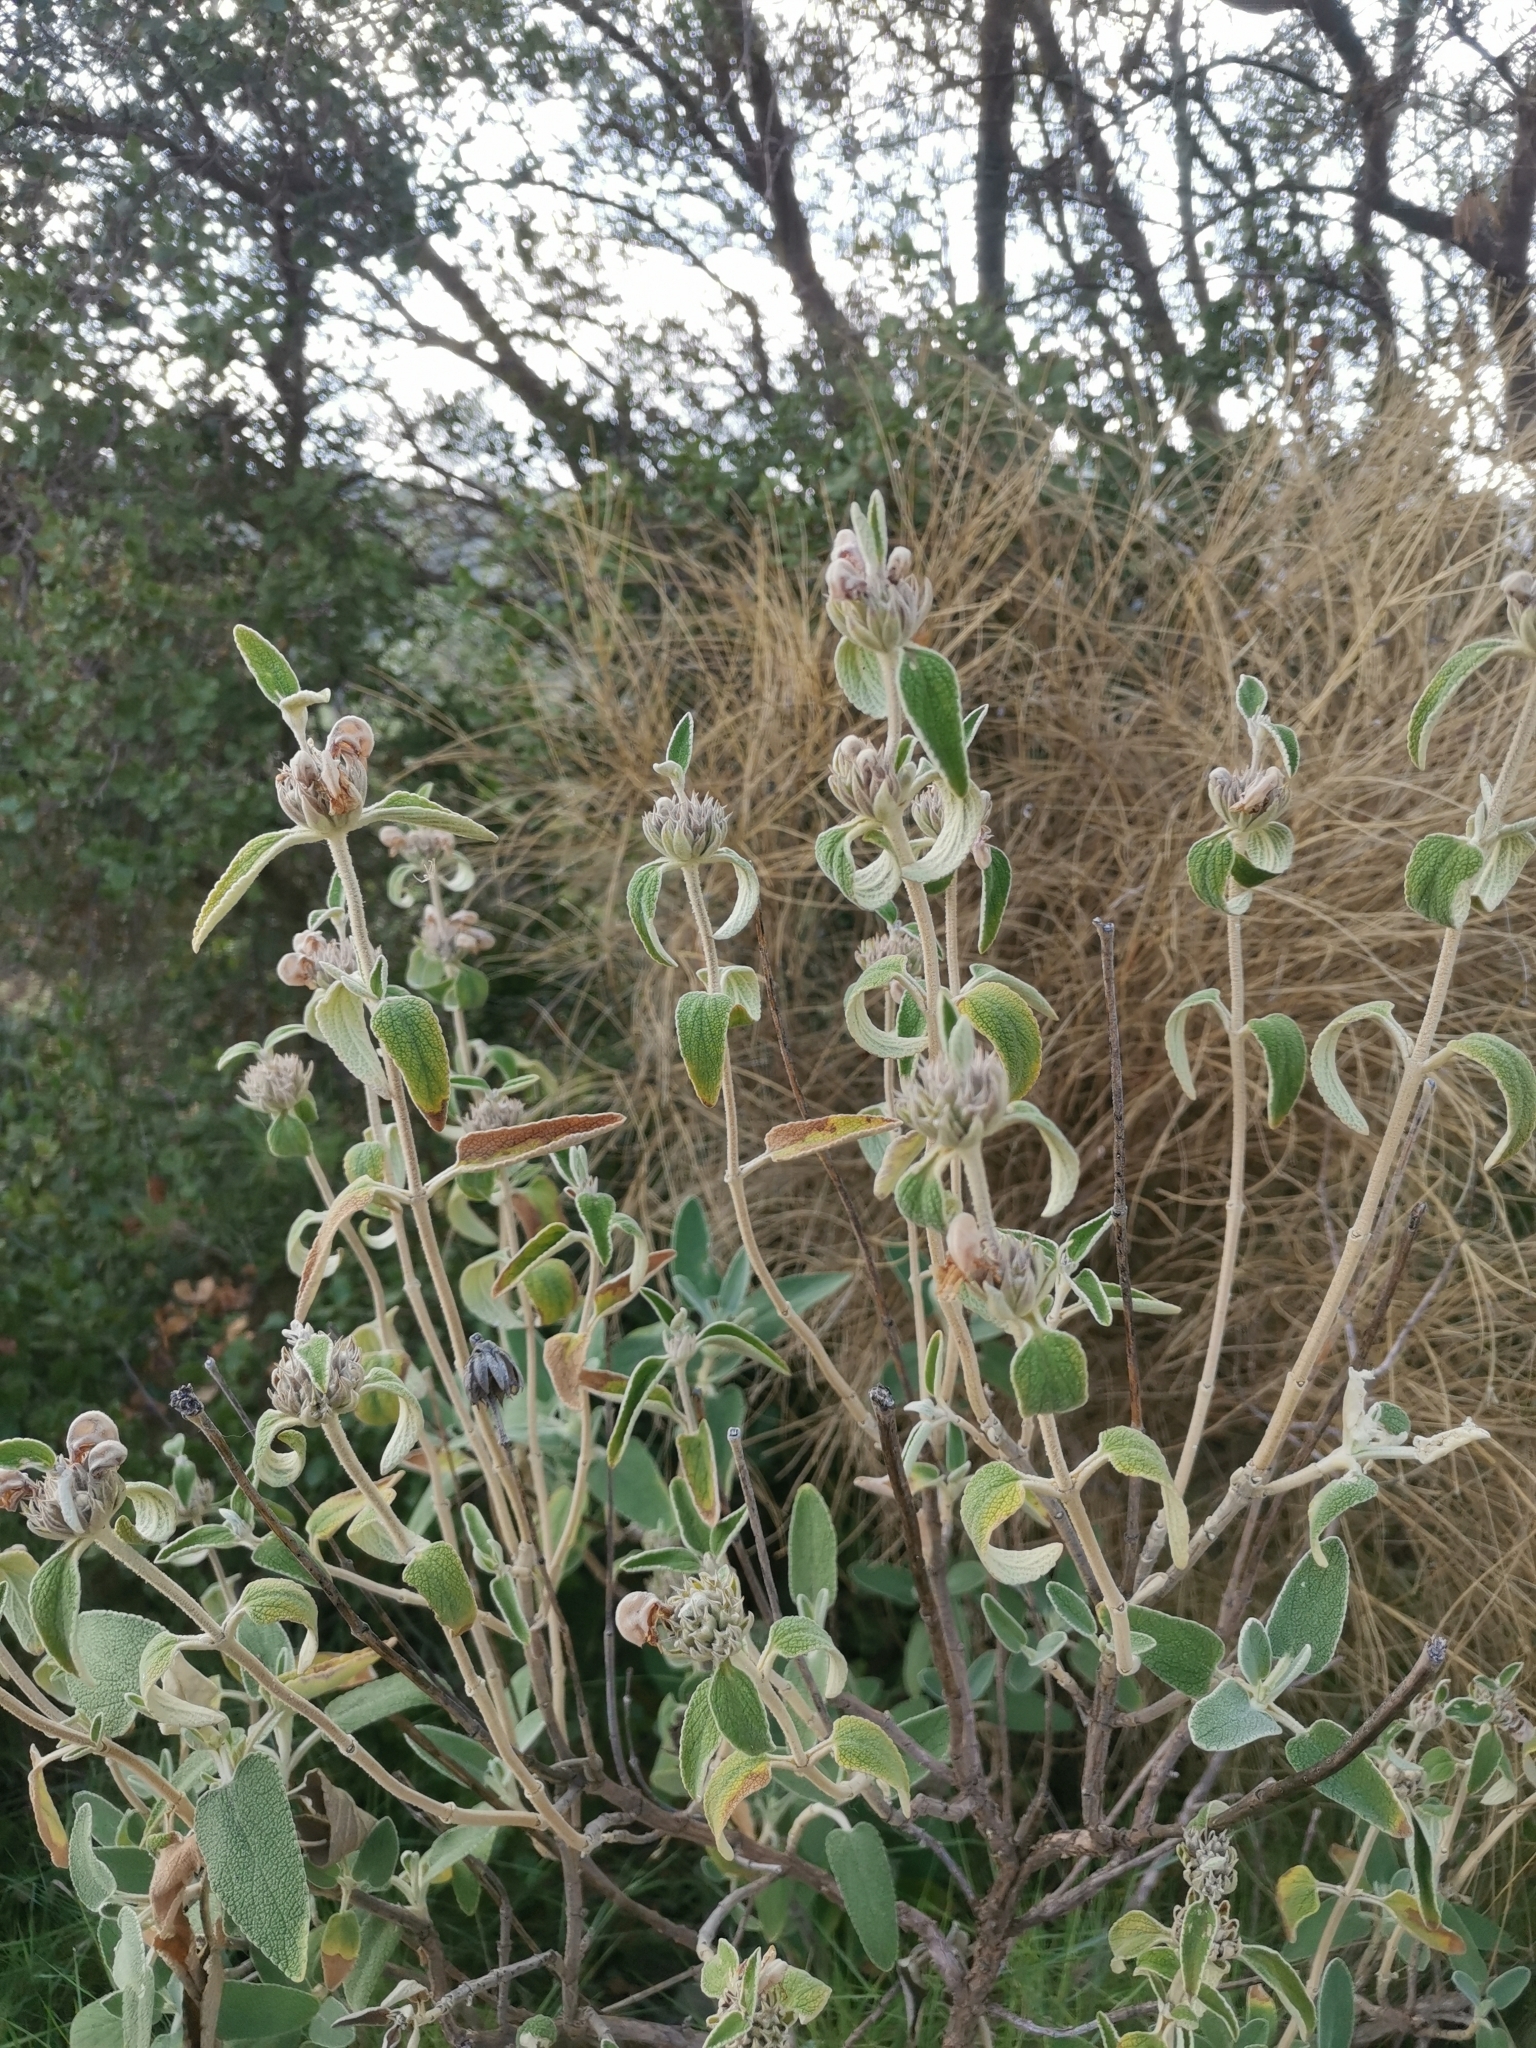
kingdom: Plantae
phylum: Tracheophyta
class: Magnoliopsida
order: Lamiales
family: Lamiaceae
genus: Phlomis
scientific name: Phlomis purpurea
